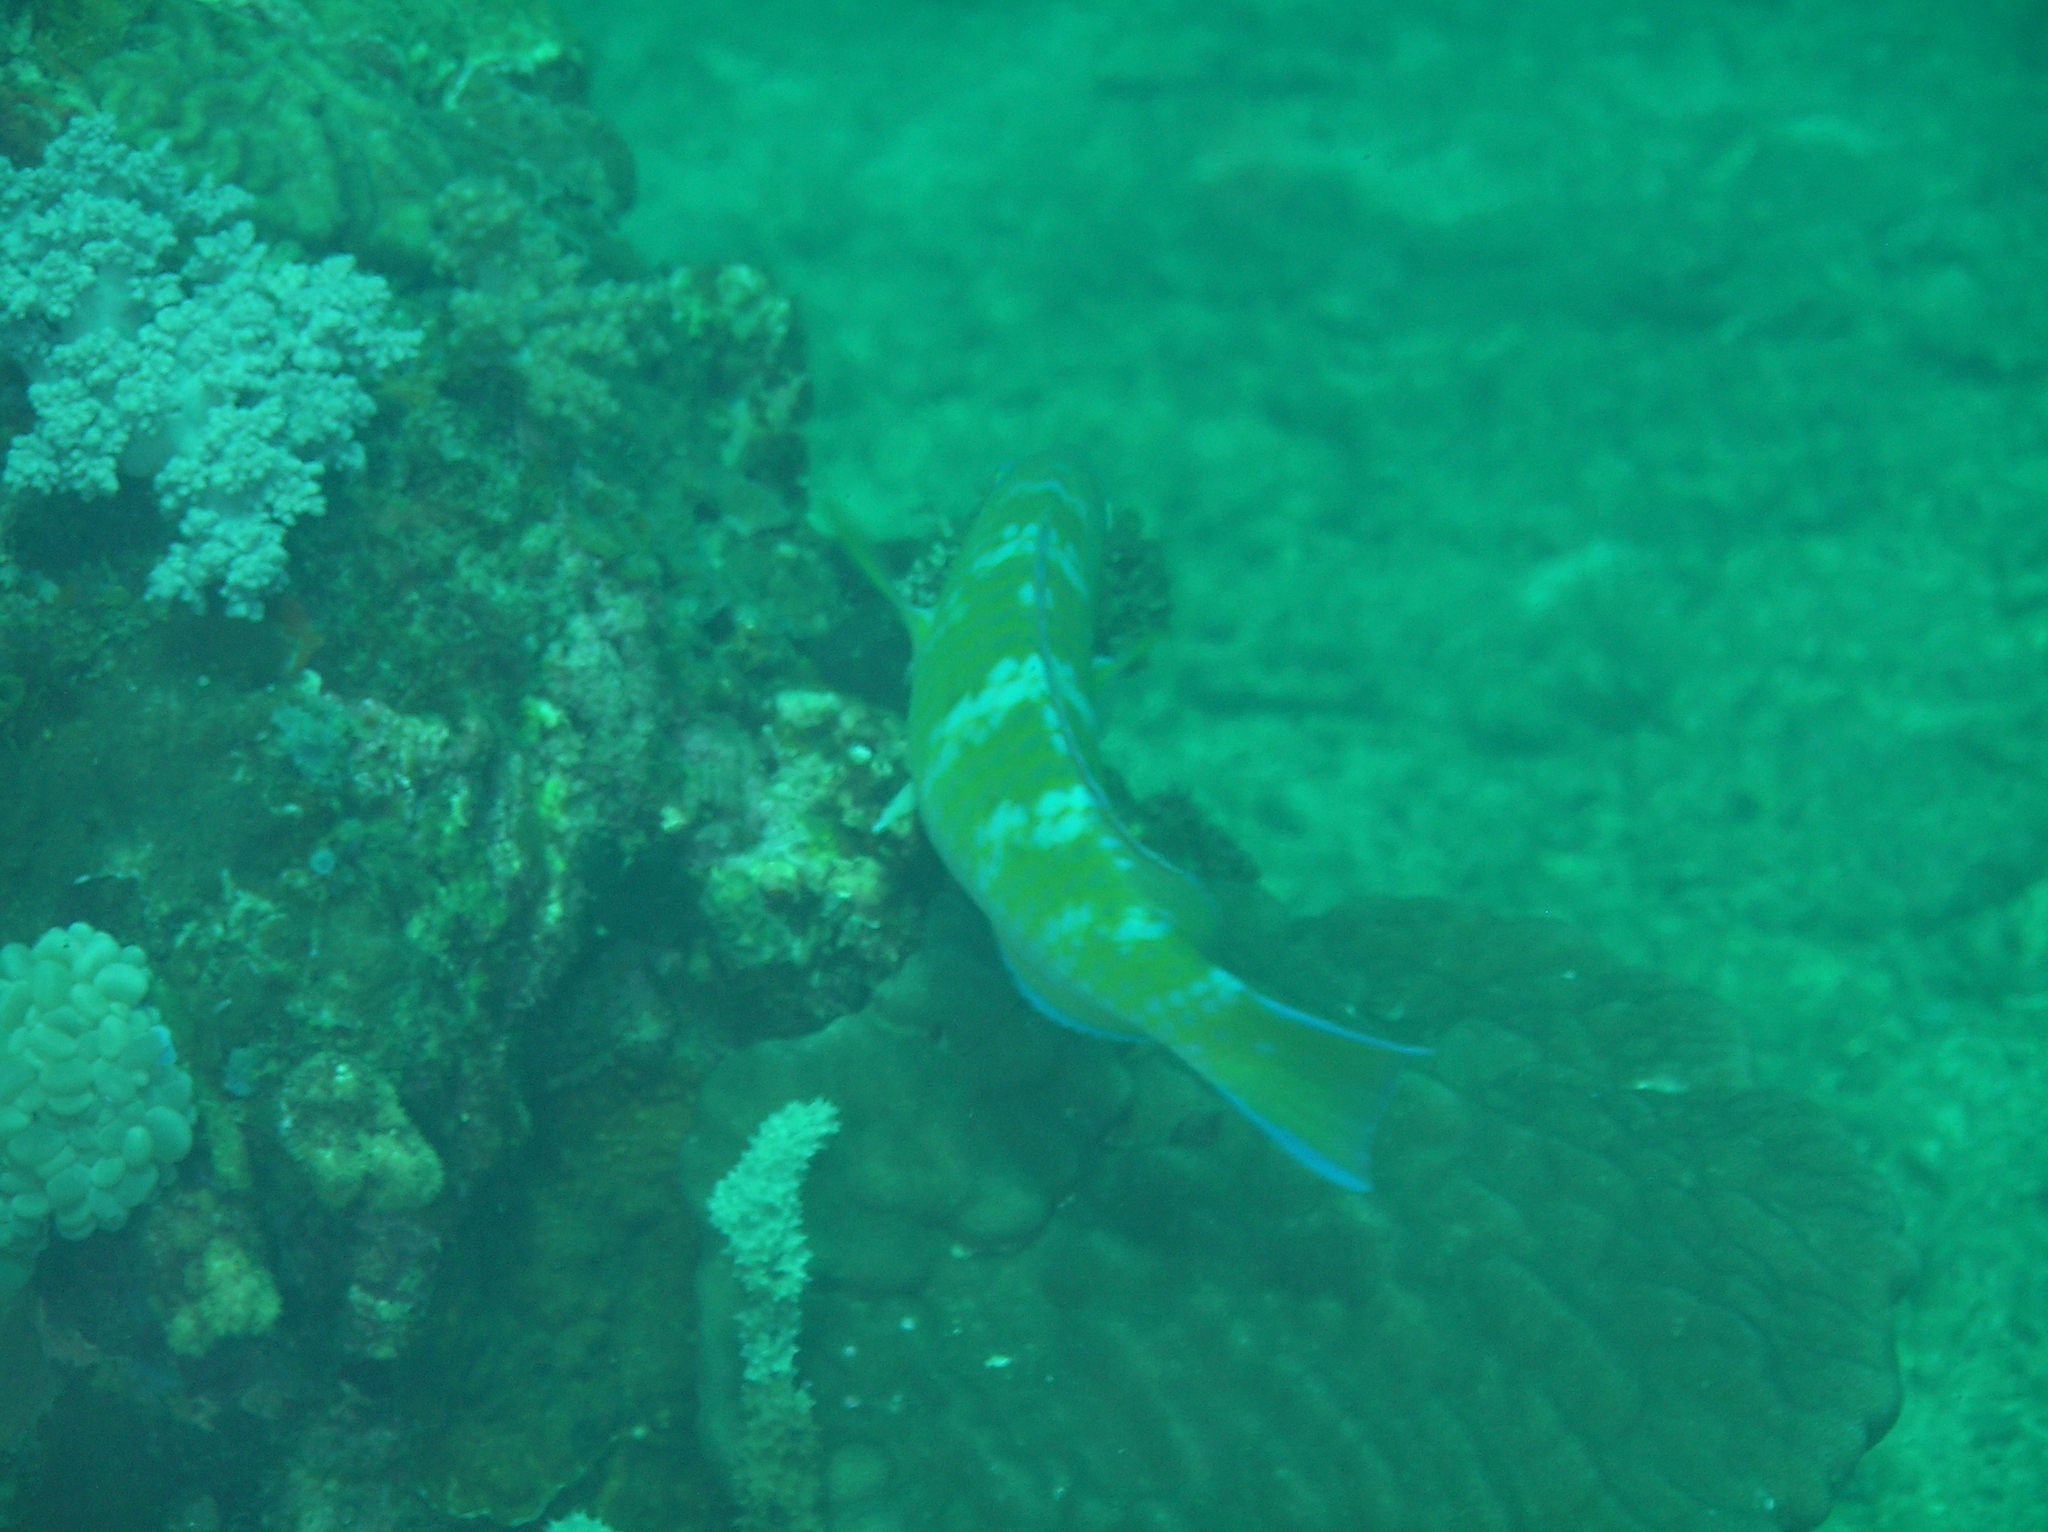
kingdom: Animalia
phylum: Chordata
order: Perciformes
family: Scaridae
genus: Scarus
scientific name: Scarus ghobban
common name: Blue-barred parrotfish
